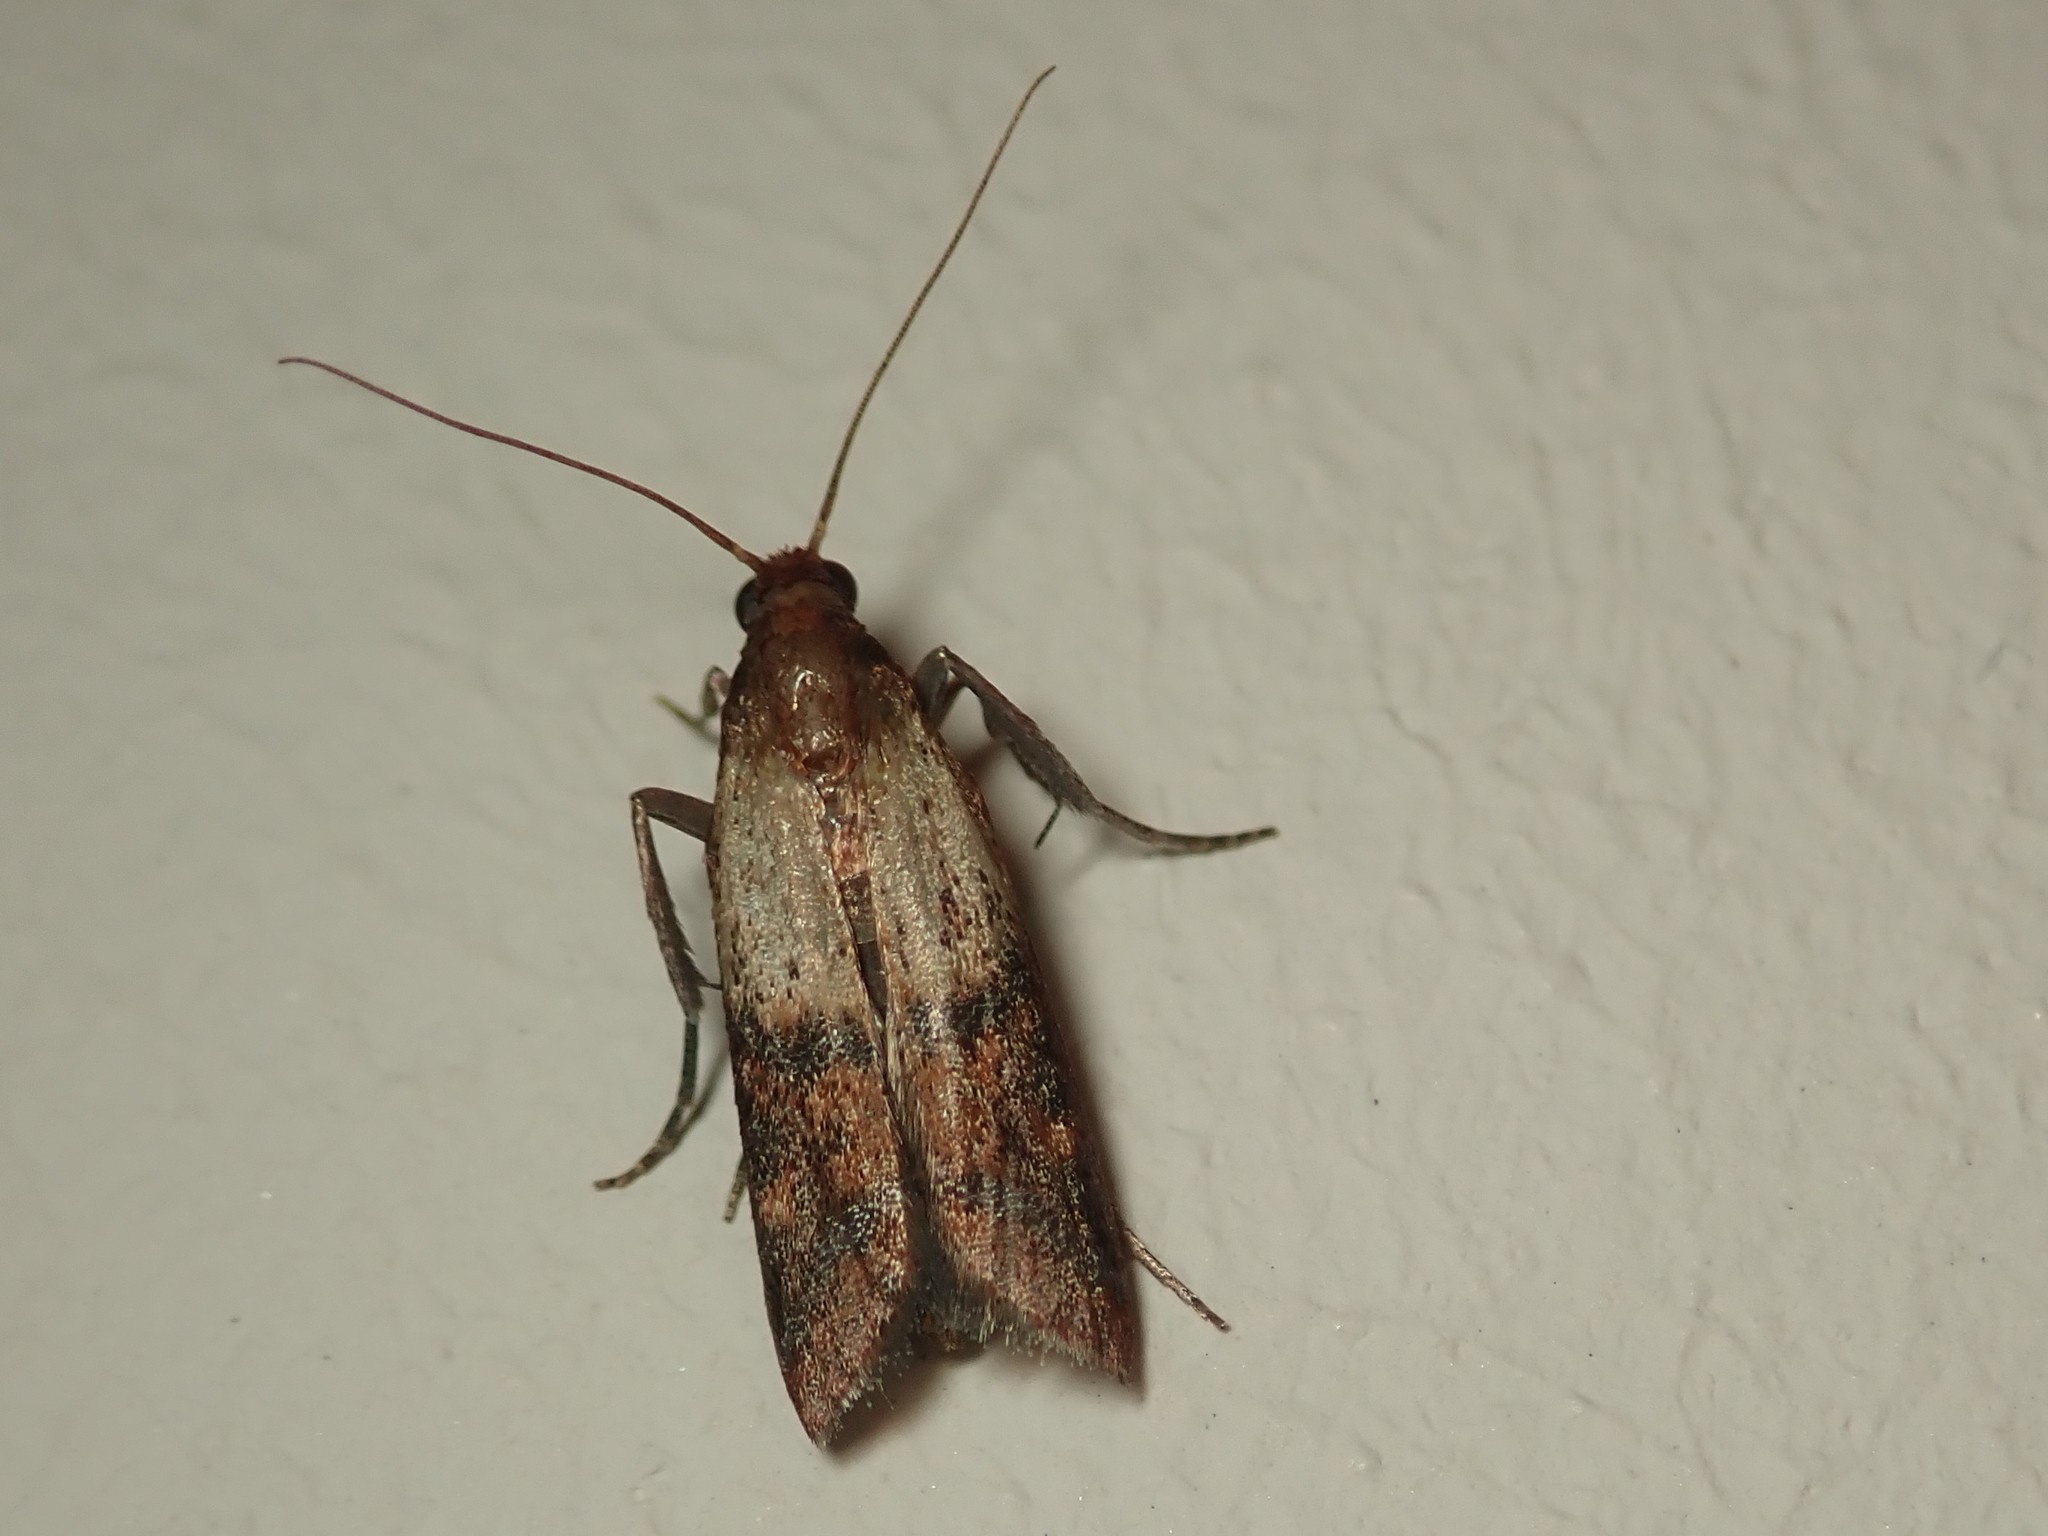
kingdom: Animalia
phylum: Arthropoda
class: Insecta
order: Lepidoptera
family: Pyralidae
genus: Plodia
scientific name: Plodia interpunctella
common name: Indian meal moth
